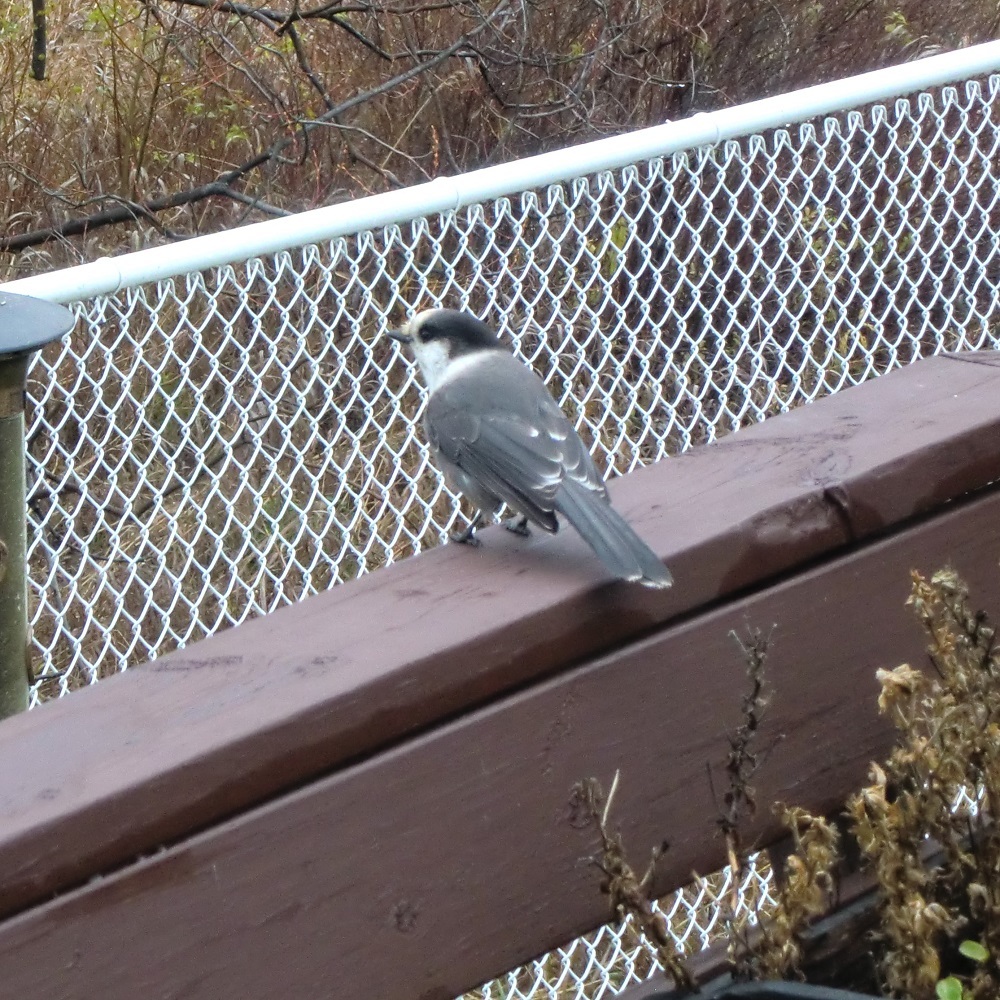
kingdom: Animalia
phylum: Chordata
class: Aves
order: Passeriformes
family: Corvidae
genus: Perisoreus
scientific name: Perisoreus canadensis
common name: Gray jay
